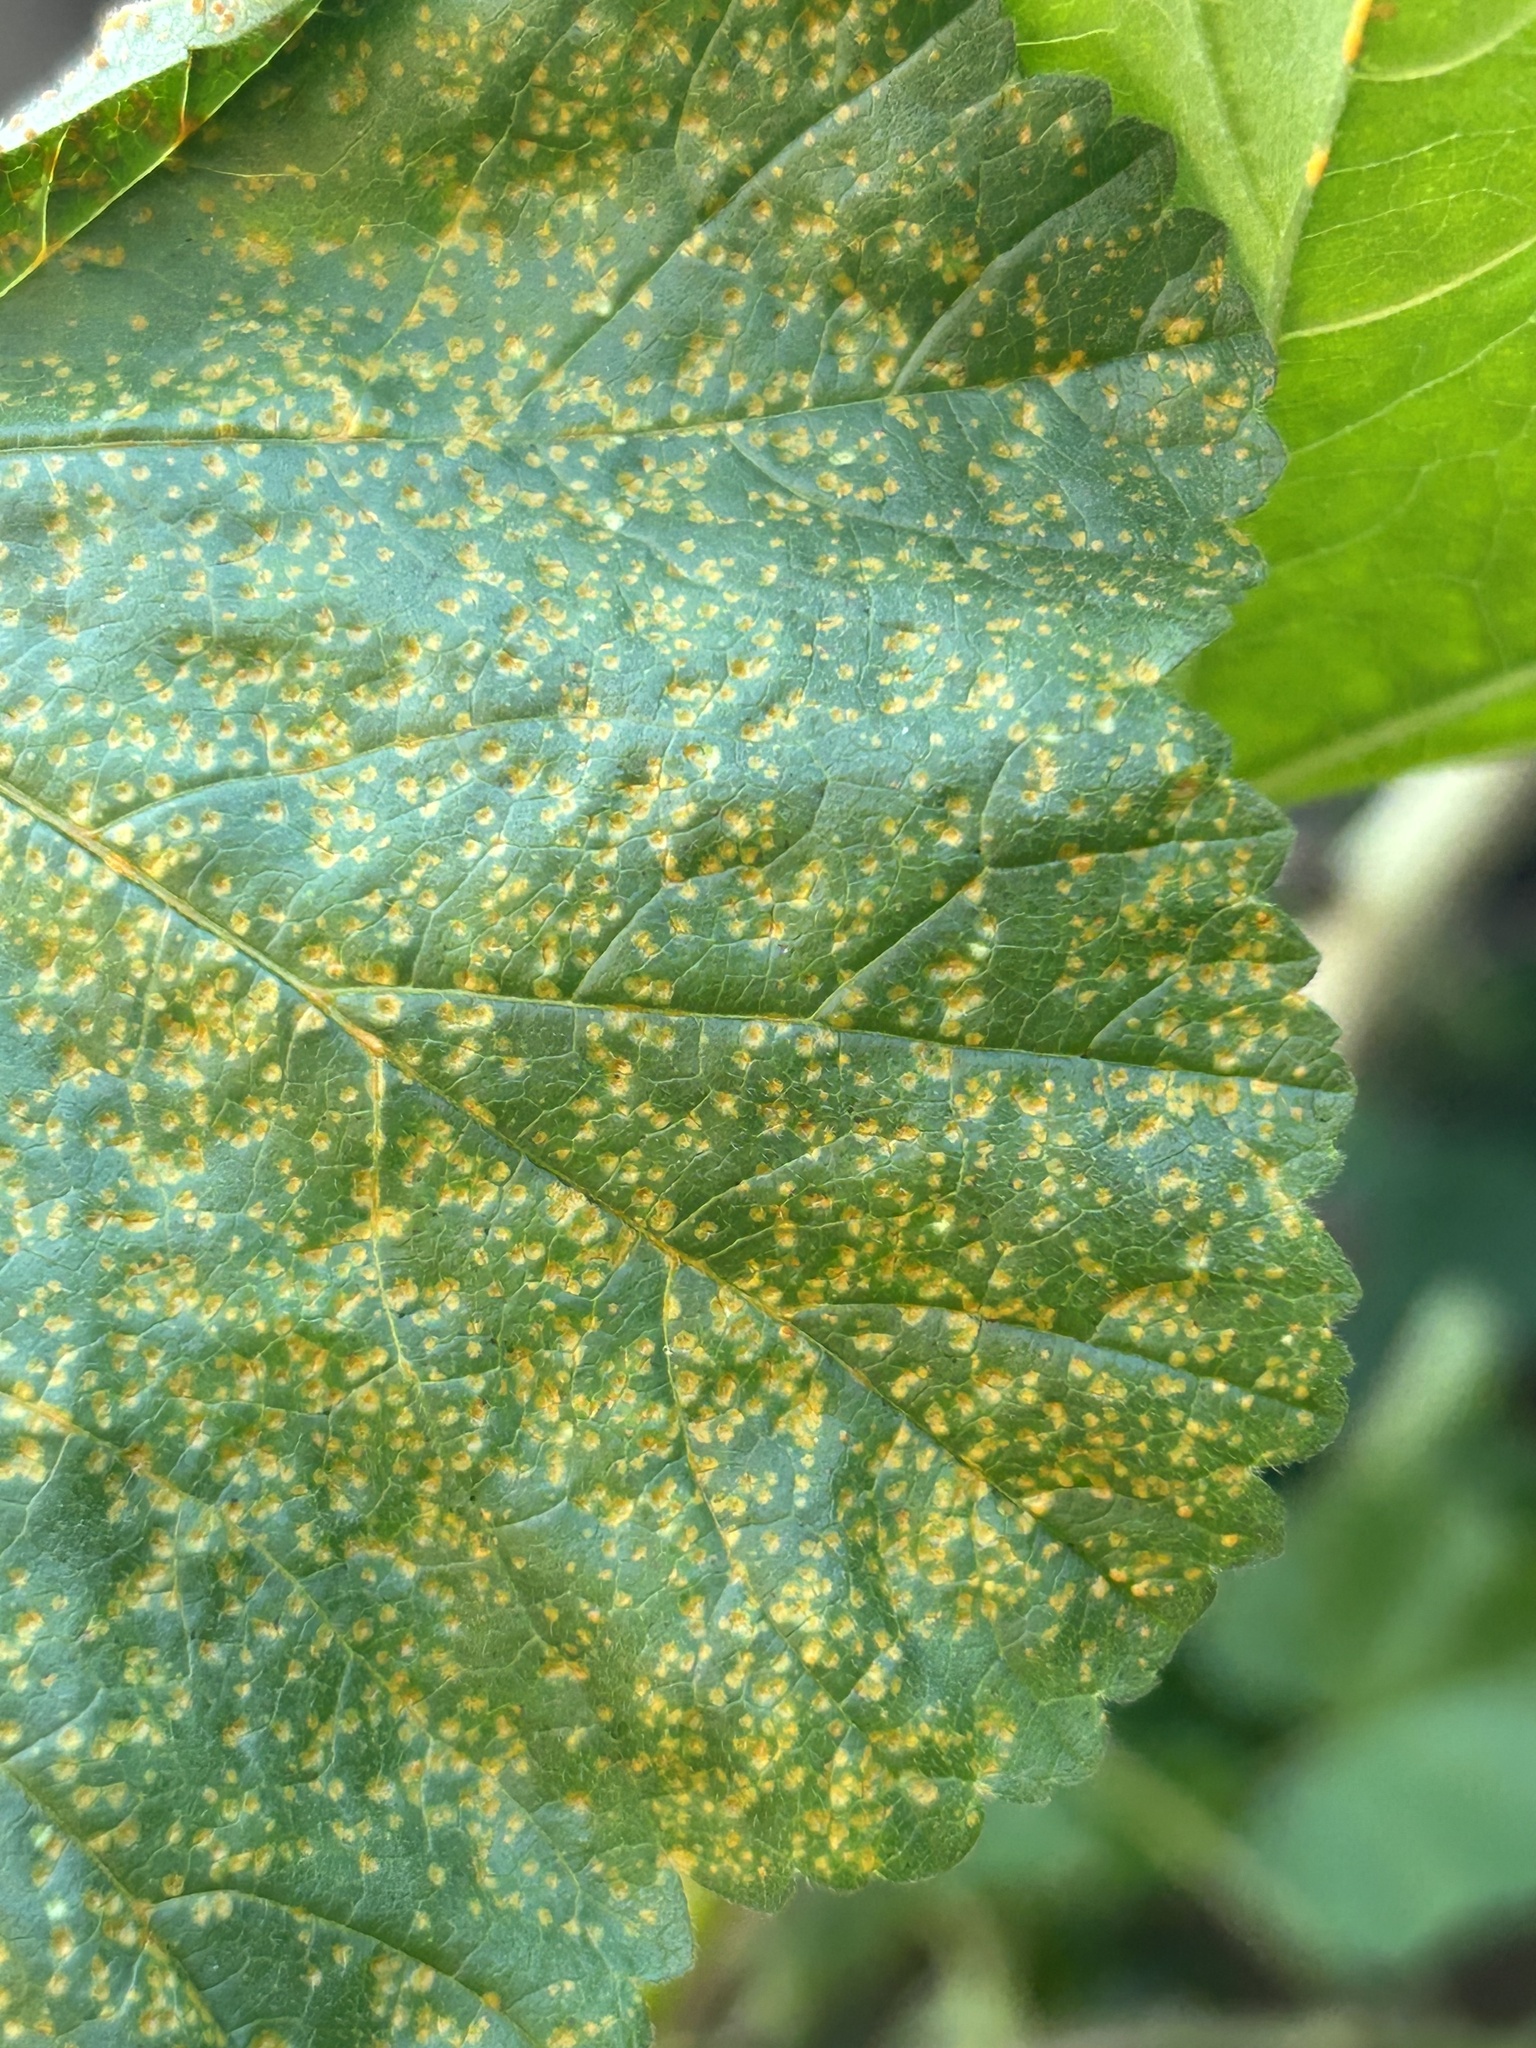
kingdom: Fungi
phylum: Basidiomycota
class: Pucciniomycetes
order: Pucciniales
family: Pucciniaceae
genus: Puccinia
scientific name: Puccinia malvacearum
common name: Hollyhock rust
